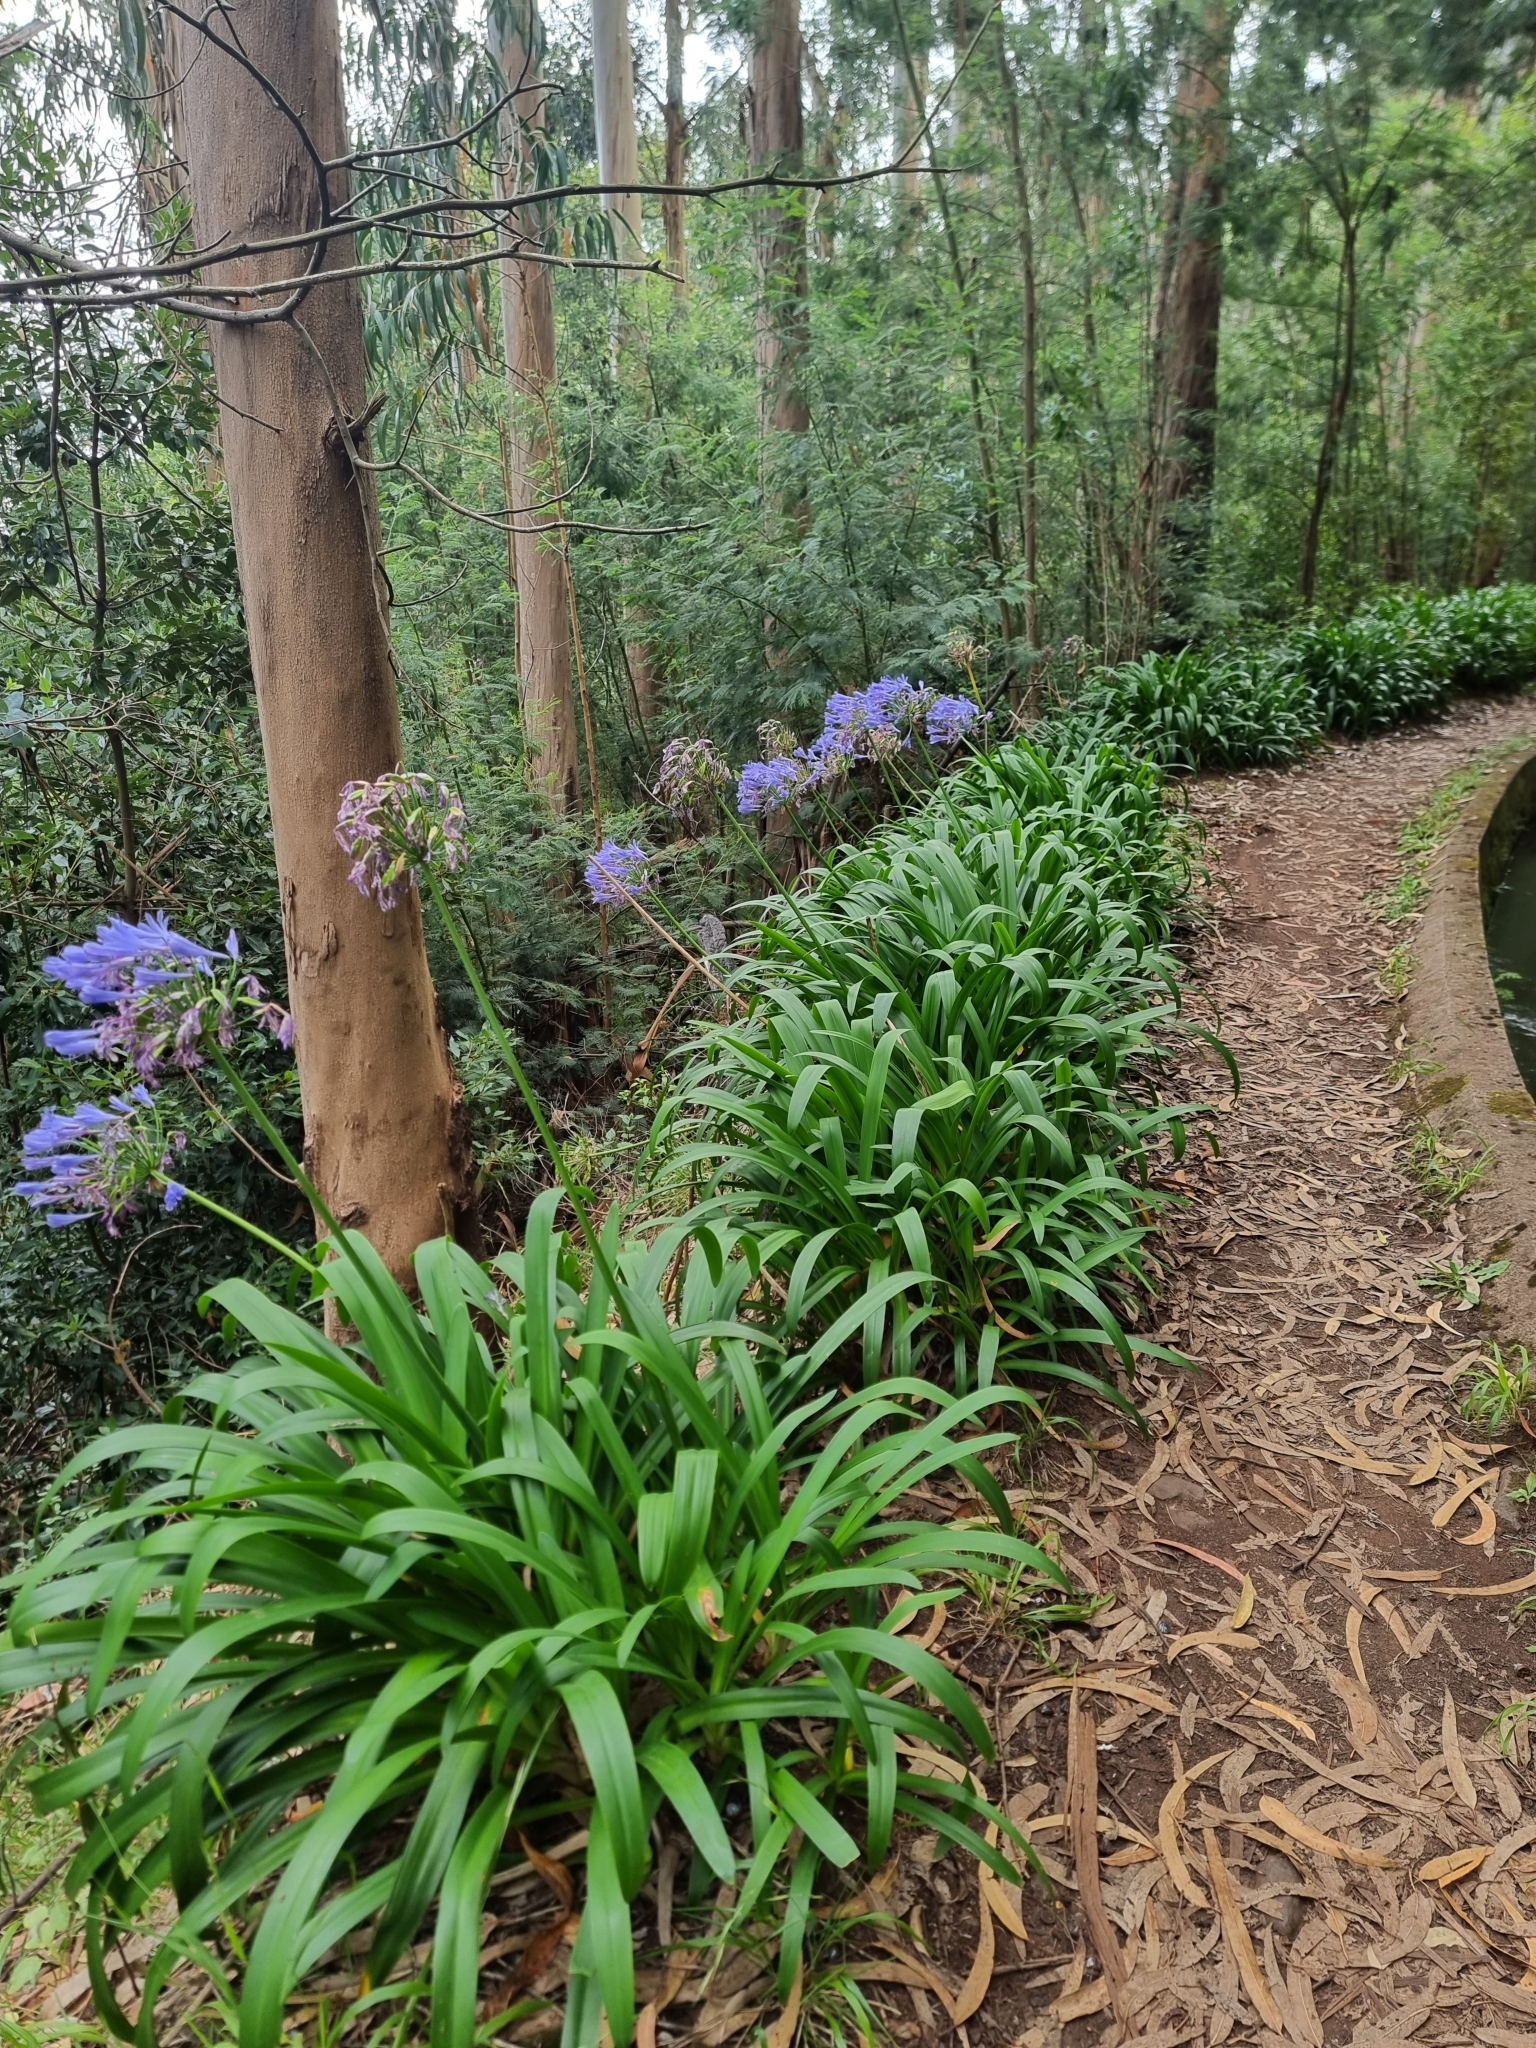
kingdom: Plantae
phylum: Tracheophyta
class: Liliopsida
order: Asparagales
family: Amaryllidaceae
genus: Agapanthus
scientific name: Agapanthus praecox
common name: African-lily
